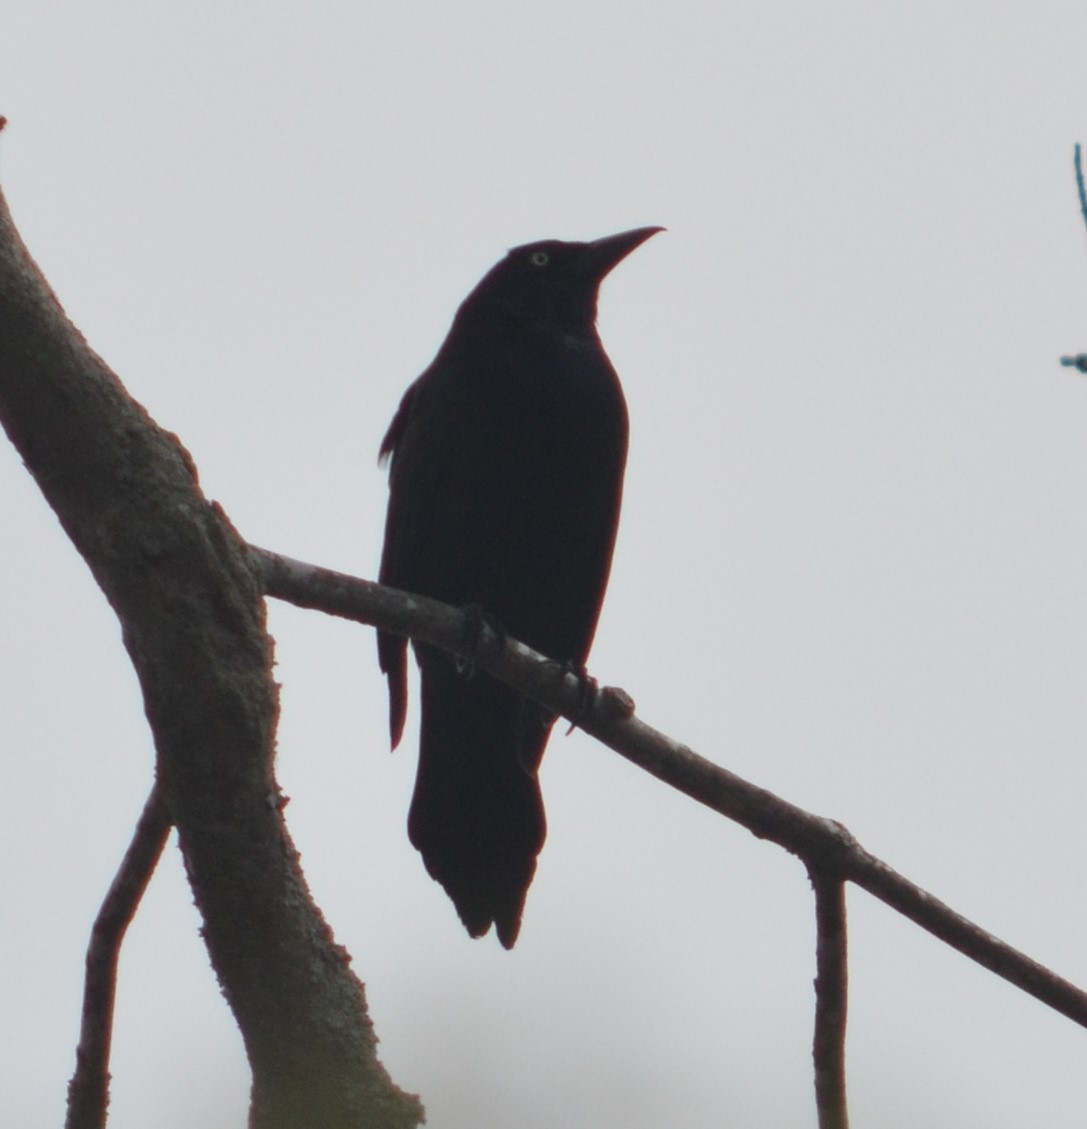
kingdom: Animalia
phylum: Chordata
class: Aves
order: Passeriformes
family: Icteridae
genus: Quiscalus
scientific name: Quiscalus quiscula
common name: Common grackle
